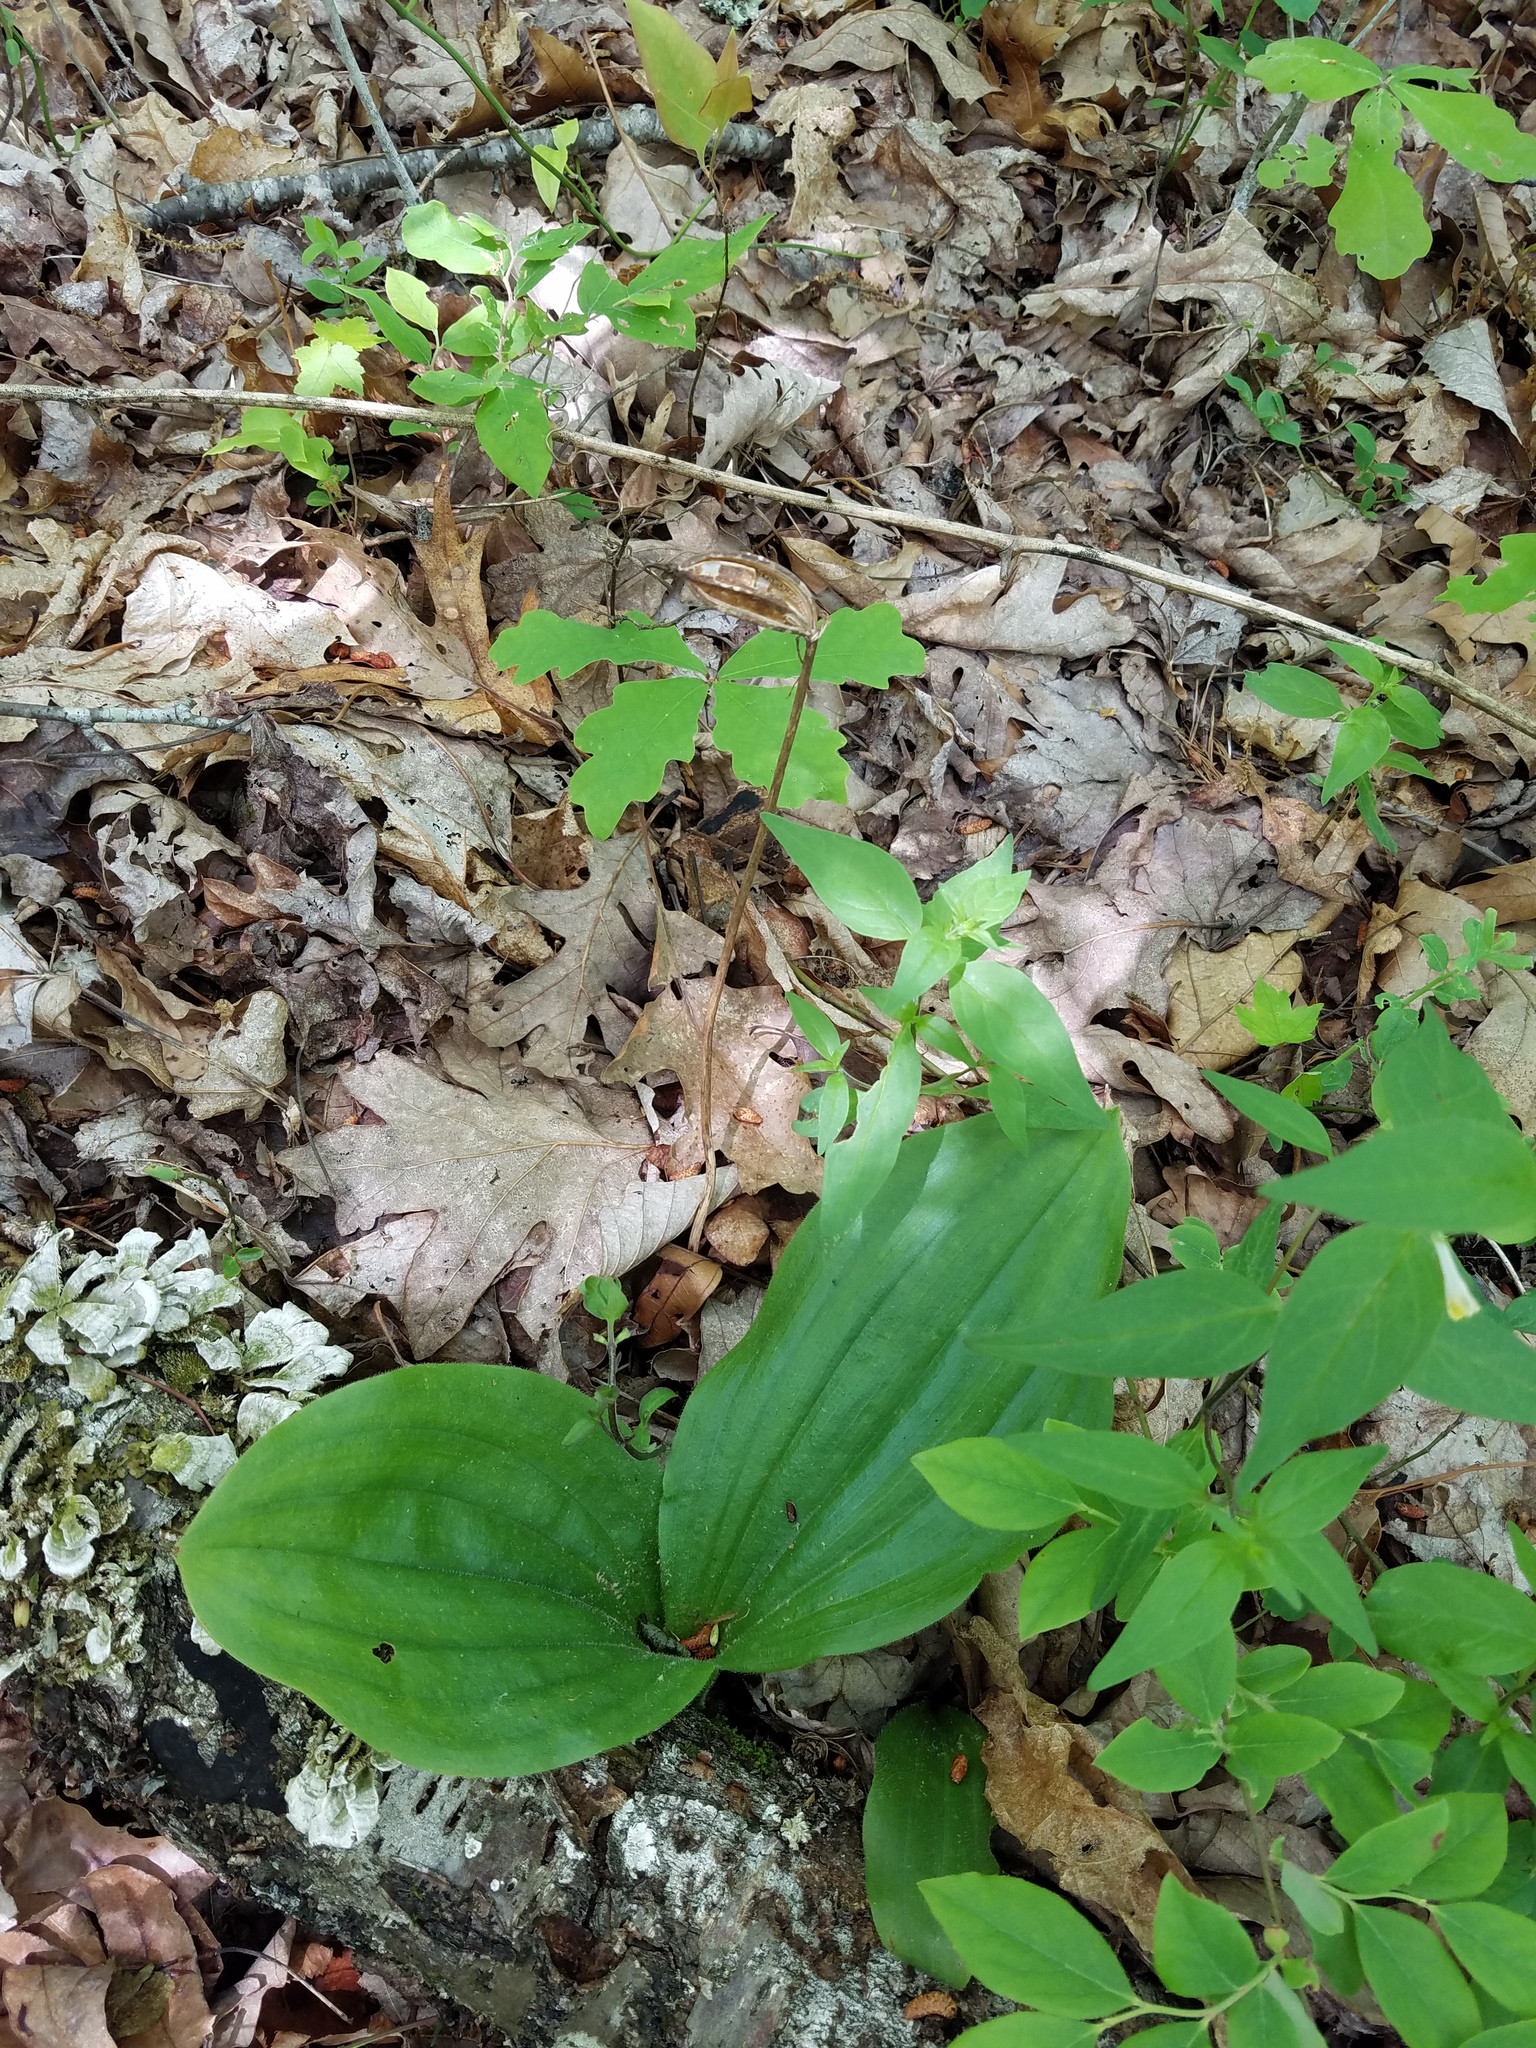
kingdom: Plantae
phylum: Tracheophyta
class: Liliopsida
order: Asparagales
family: Orchidaceae
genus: Cypripedium
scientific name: Cypripedium acaule
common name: Pink lady's-slipper
